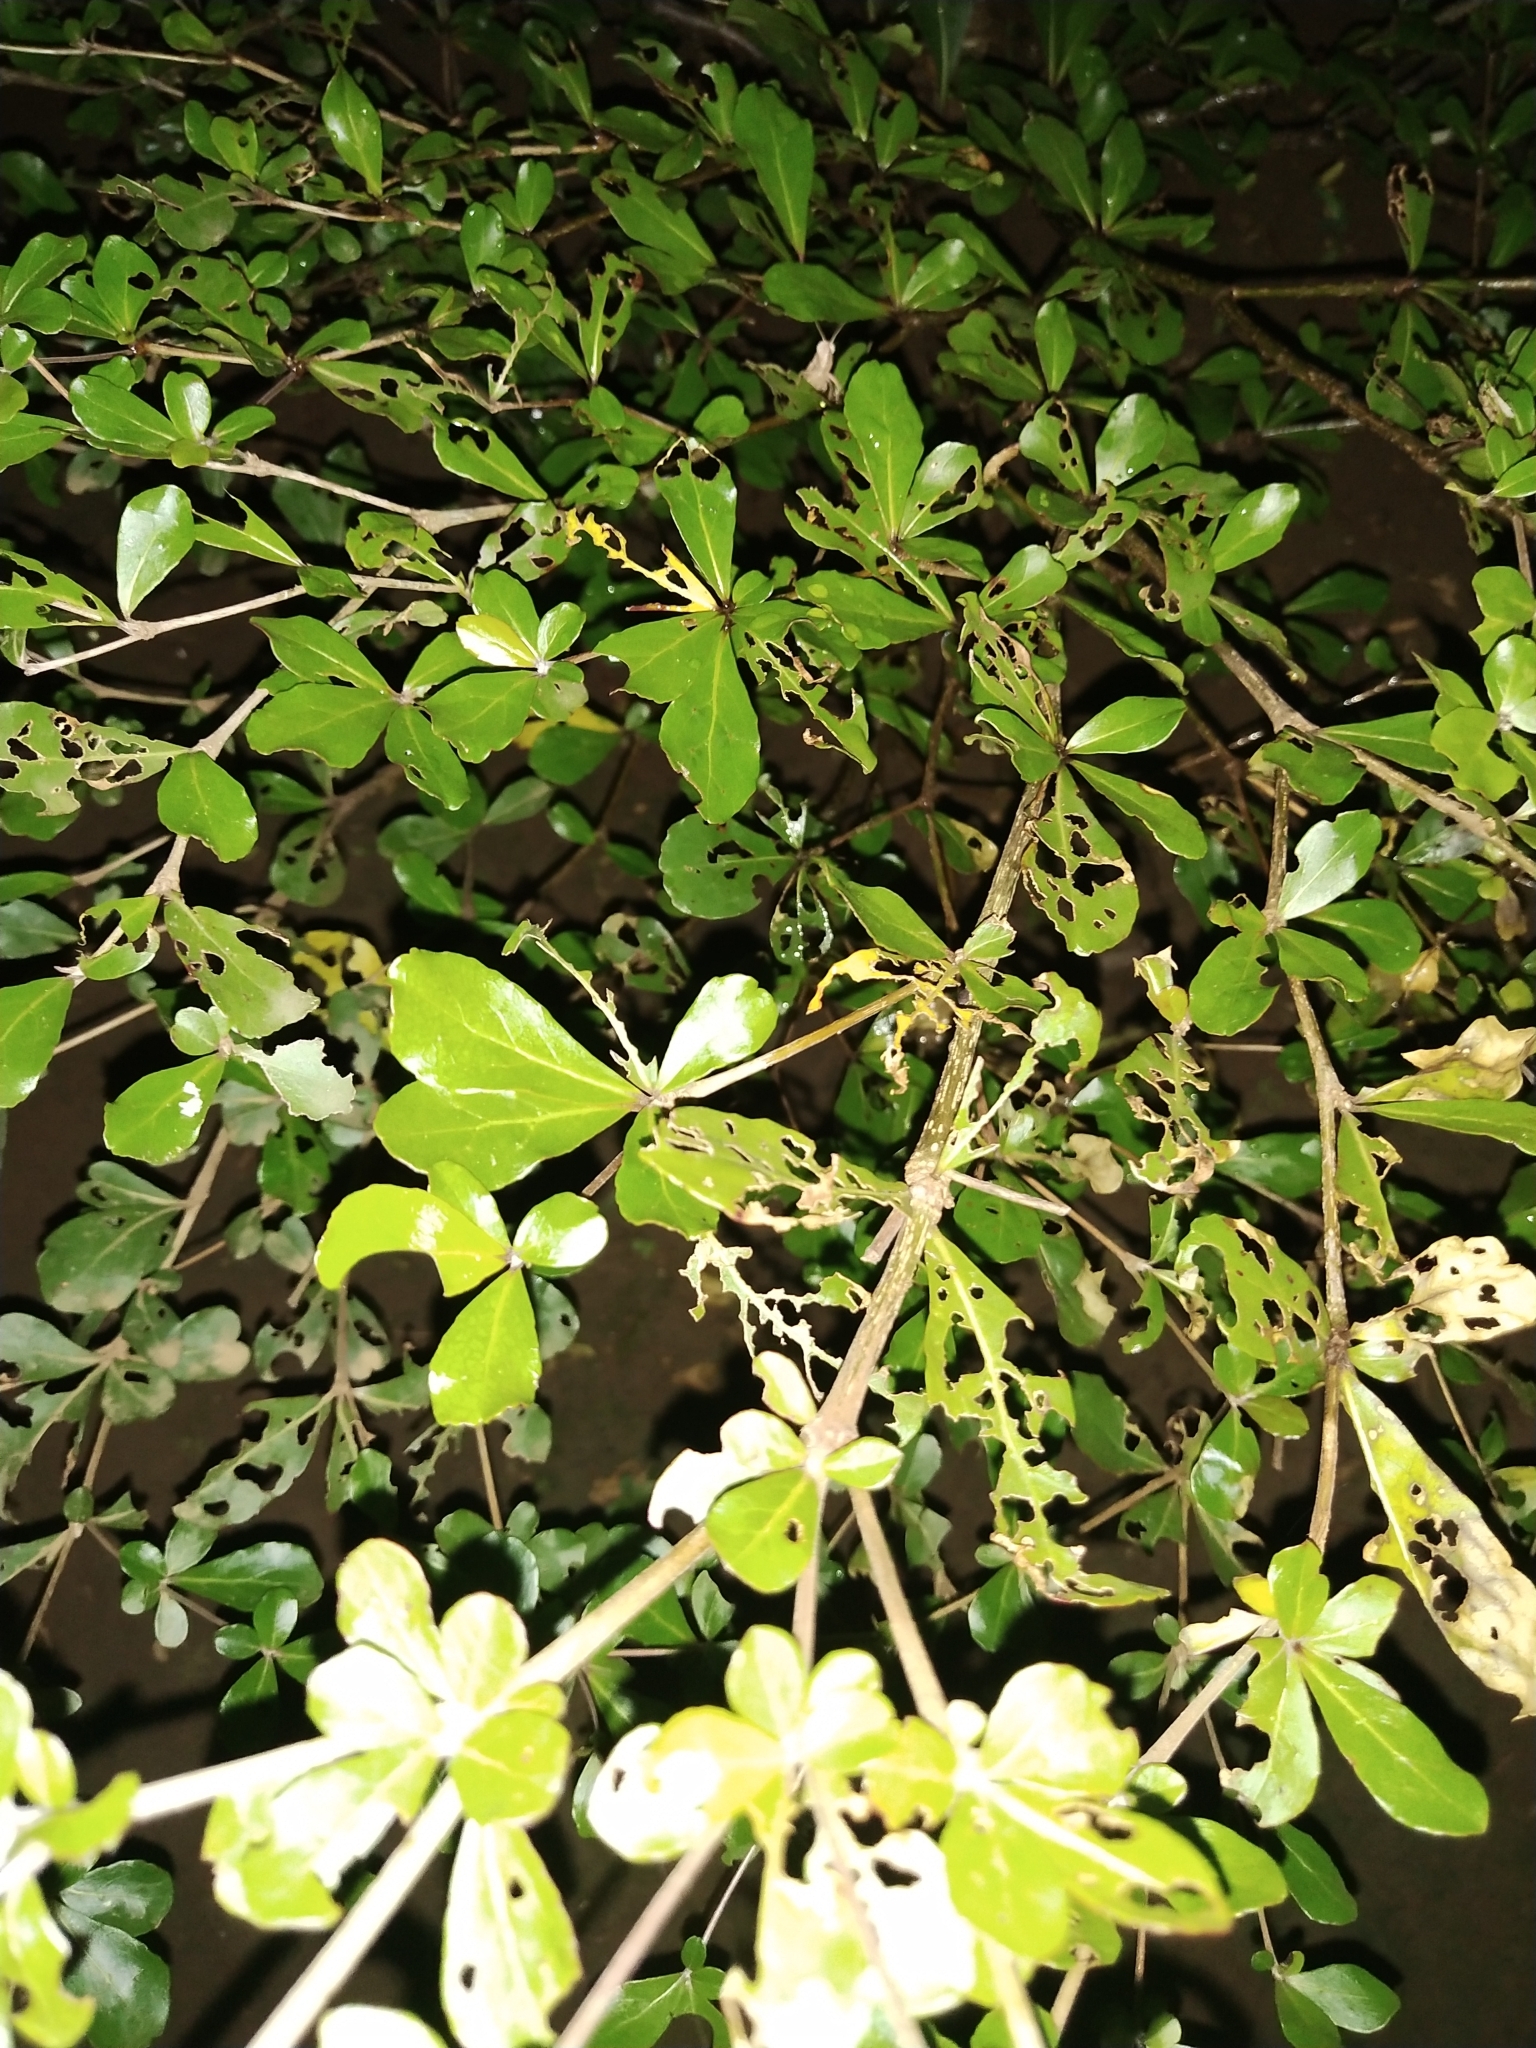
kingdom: Plantae
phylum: Tracheophyta
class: Magnoliopsida
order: Myrtales
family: Combretaceae
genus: Terminalia
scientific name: Terminalia neotaliala
